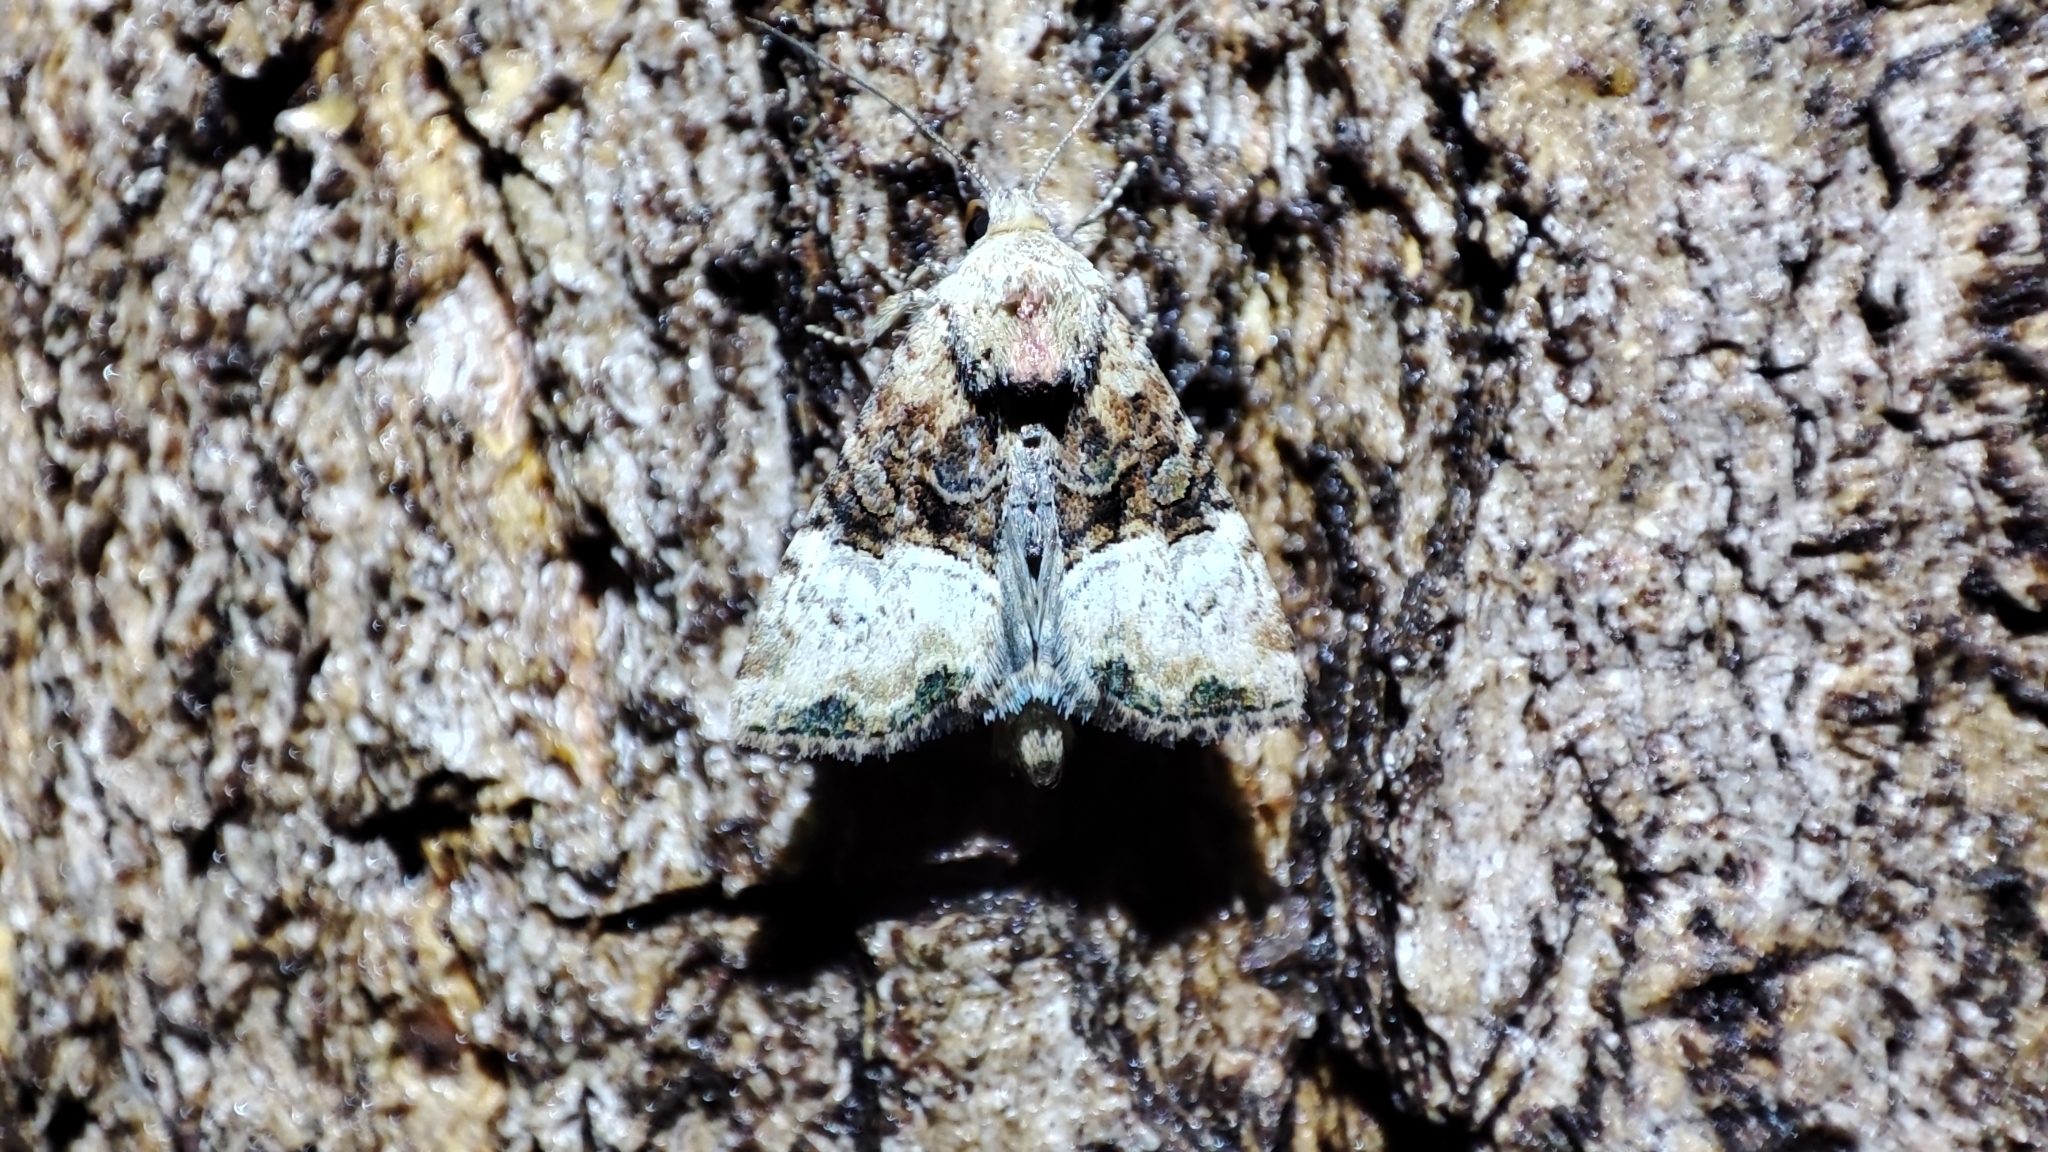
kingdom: Animalia
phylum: Arthropoda
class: Insecta
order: Lepidoptera
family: Noctuidae
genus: Mesoligia
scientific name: Mesoligia furuncula
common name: Cloaked minor
